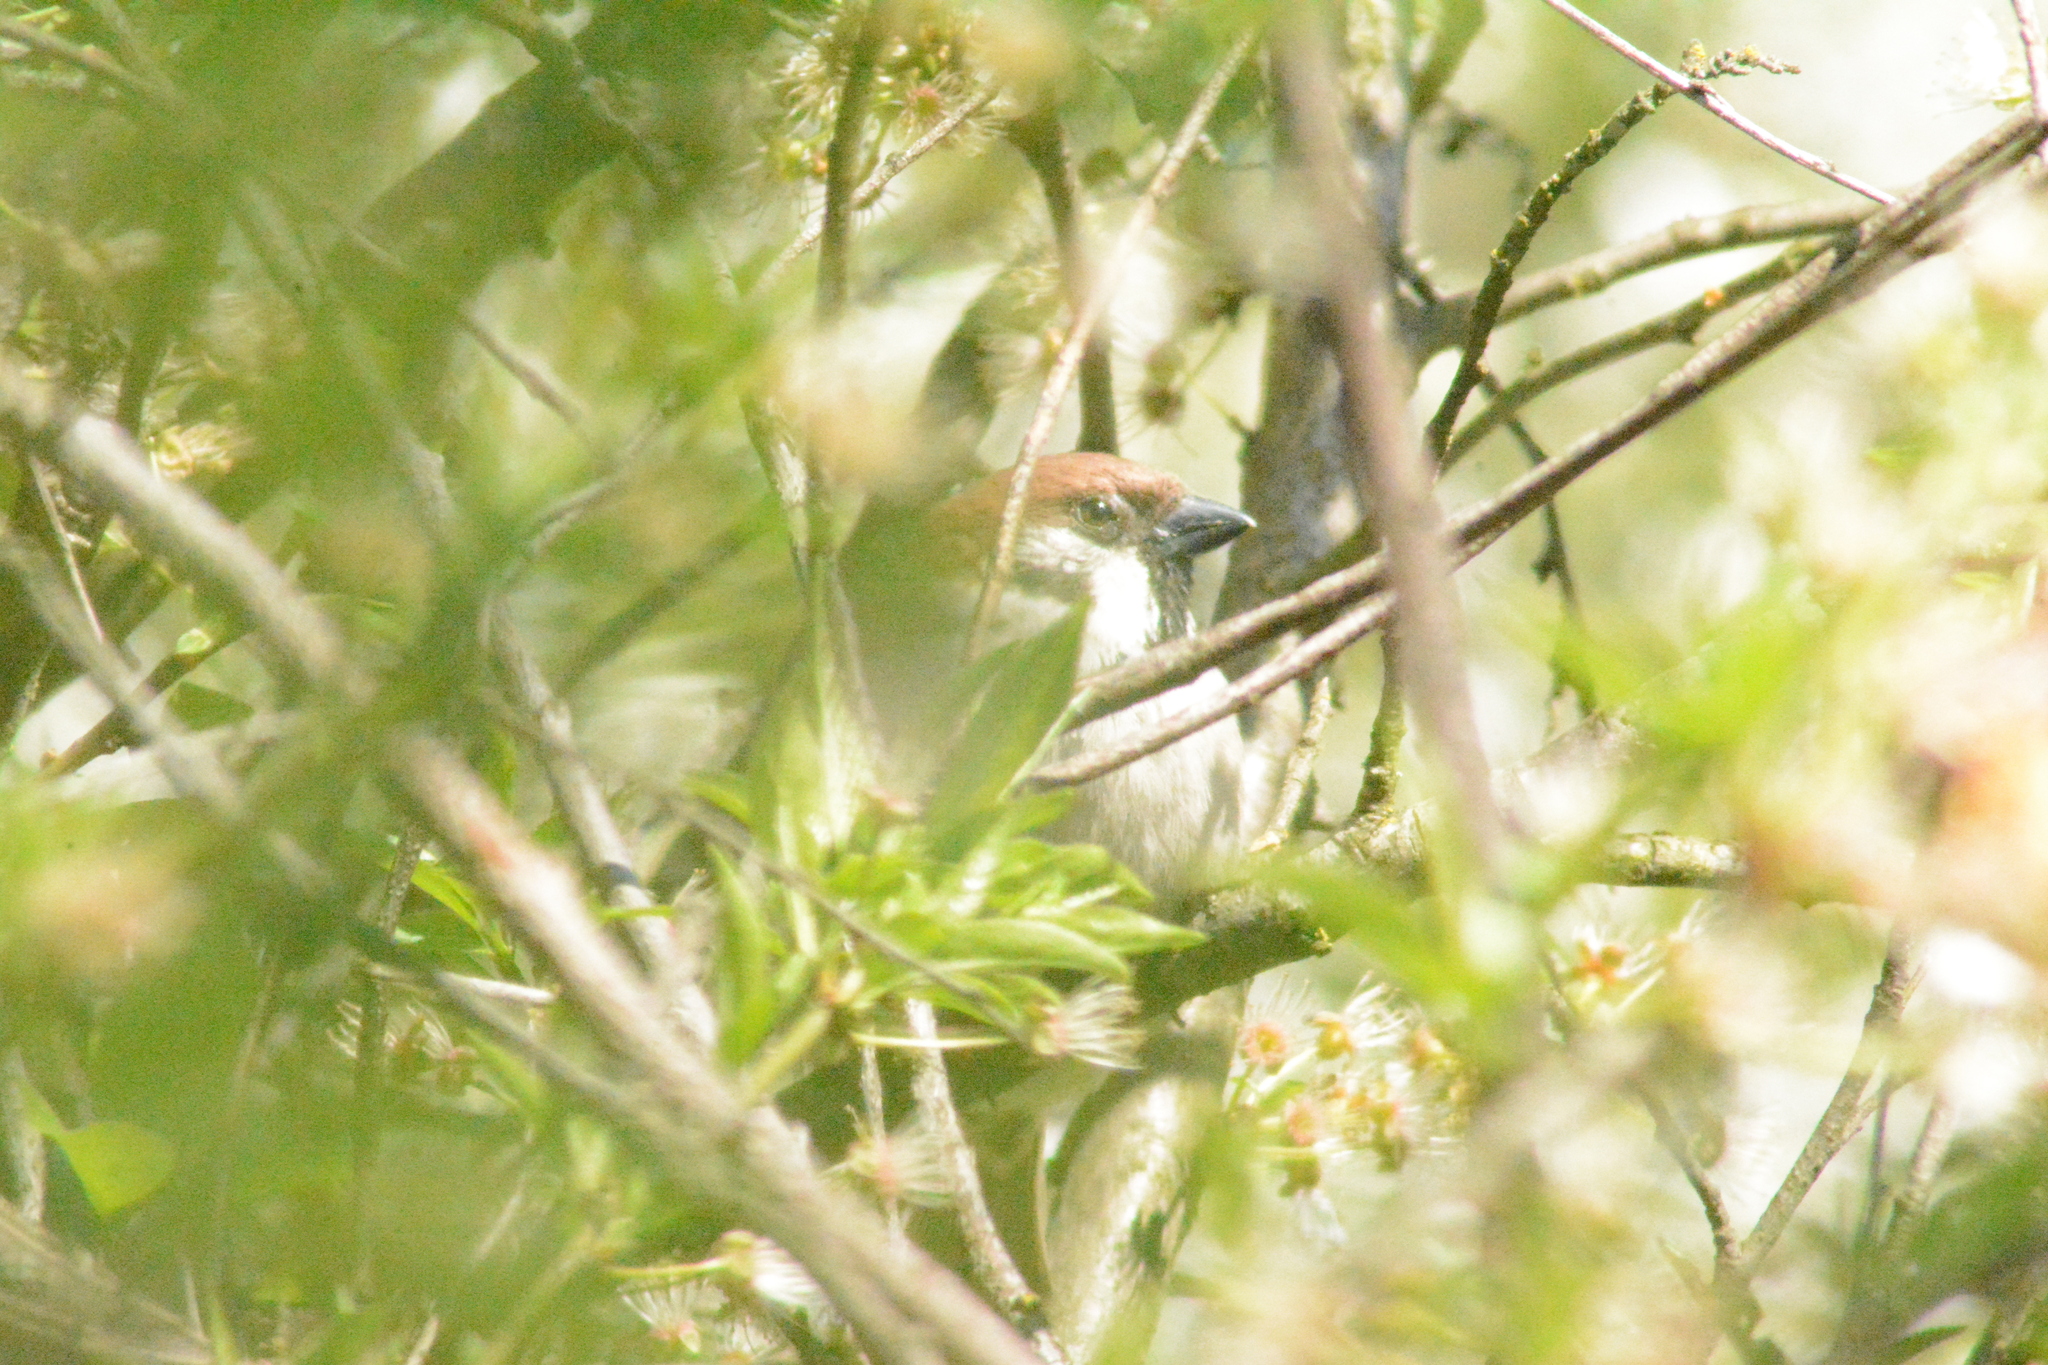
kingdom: Animalia
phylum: Chordata
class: Aves
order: Passeriformes
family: Passeridae
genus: Passer
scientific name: Passer montanus
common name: Eurasian tree sparrow
